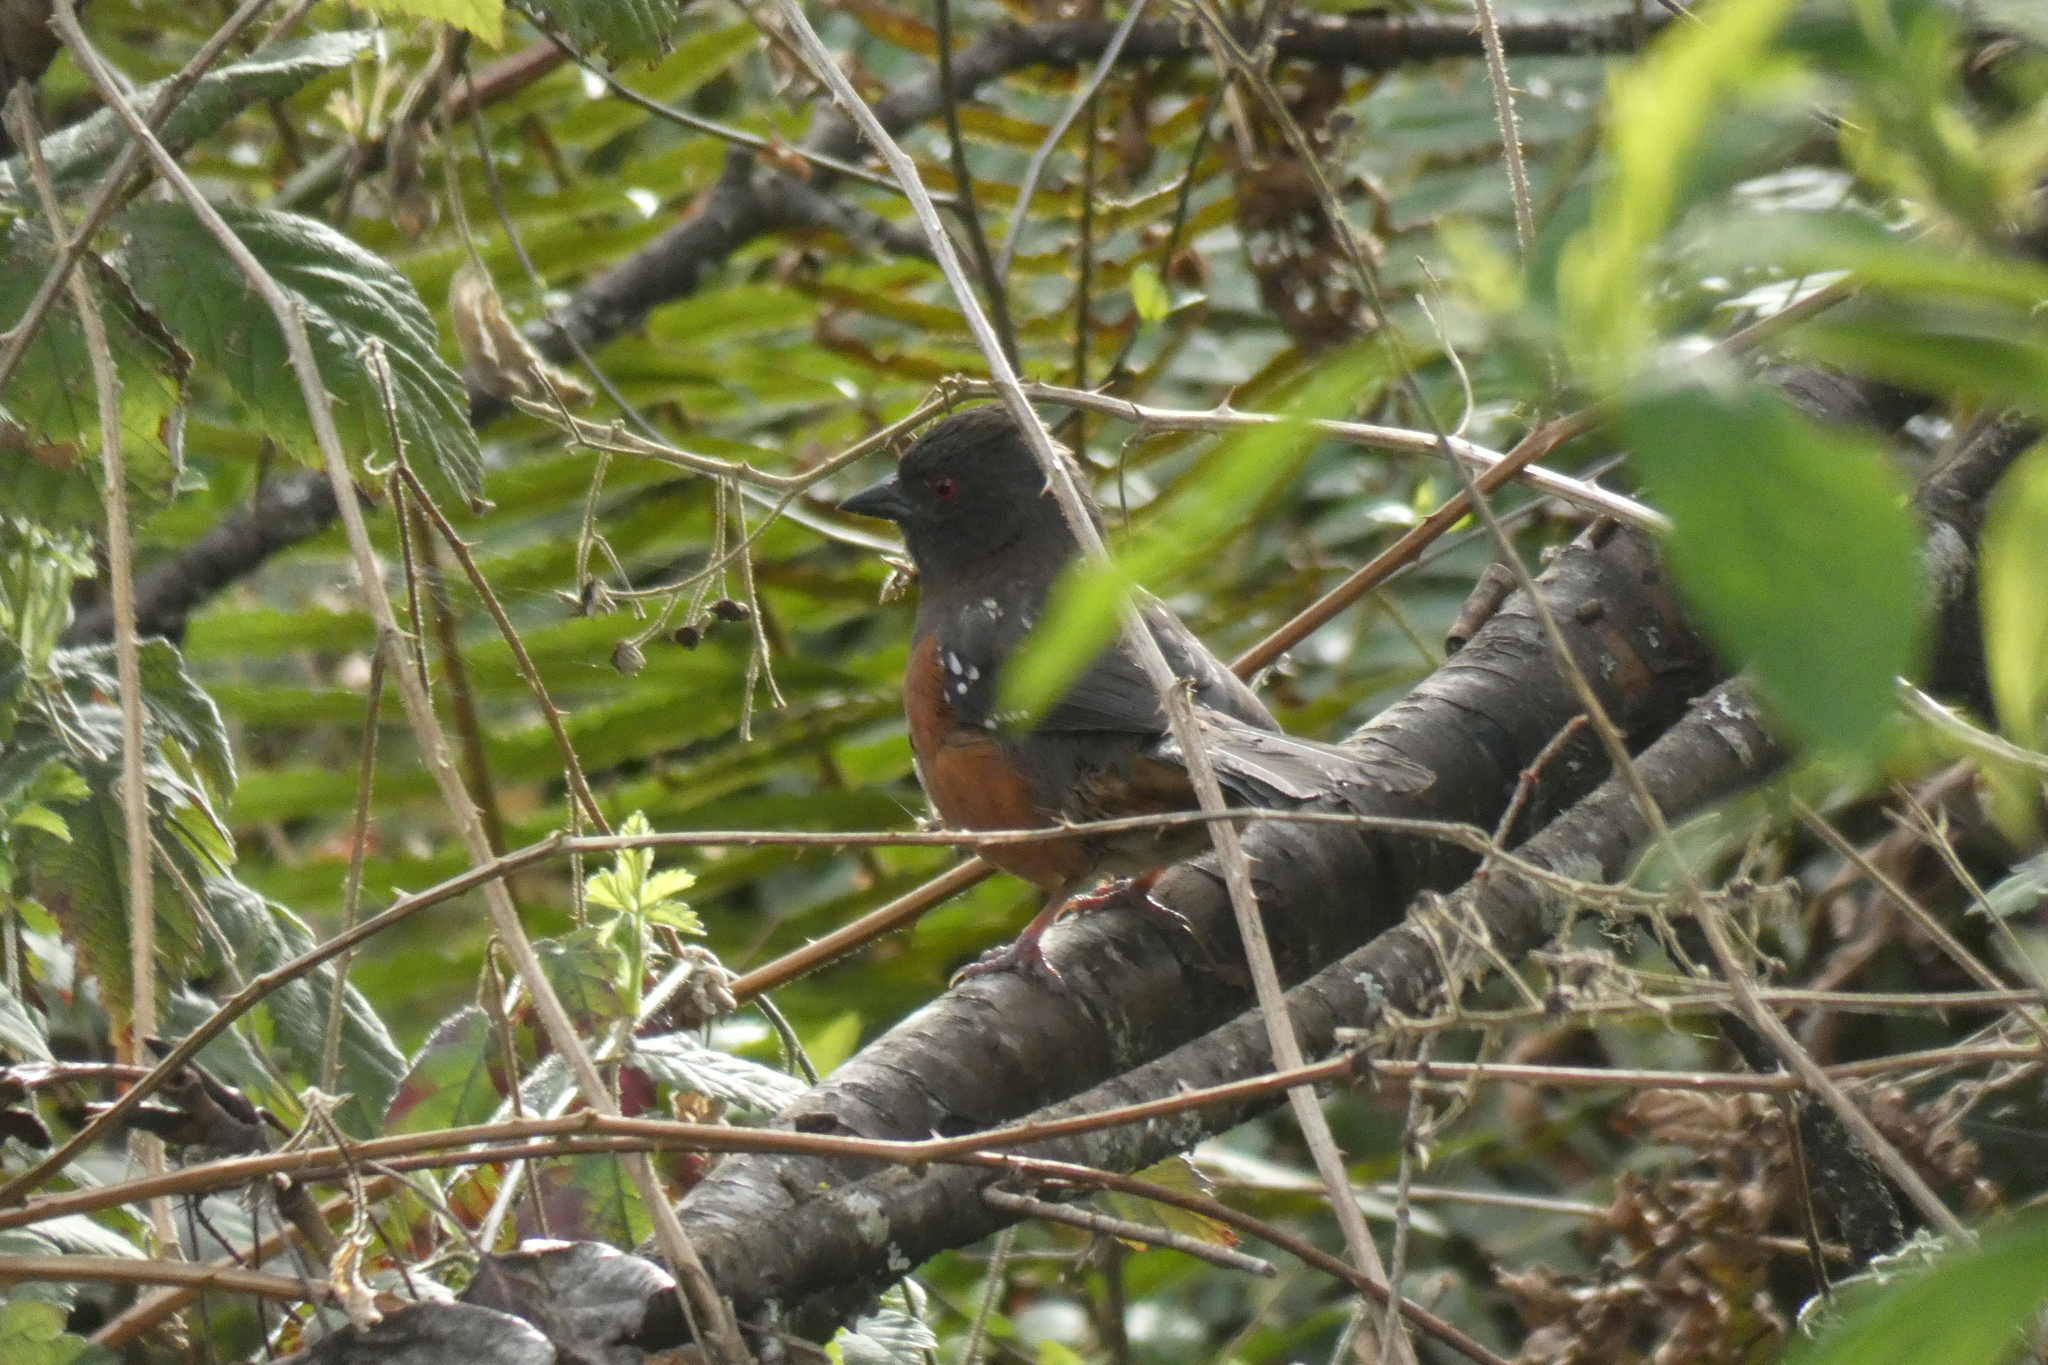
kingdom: Animalia
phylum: Chordata
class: Aves
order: Passeriformes
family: Passerellidae
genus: Pipilo
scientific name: Pipilo maculatus
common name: Spotted towhee
